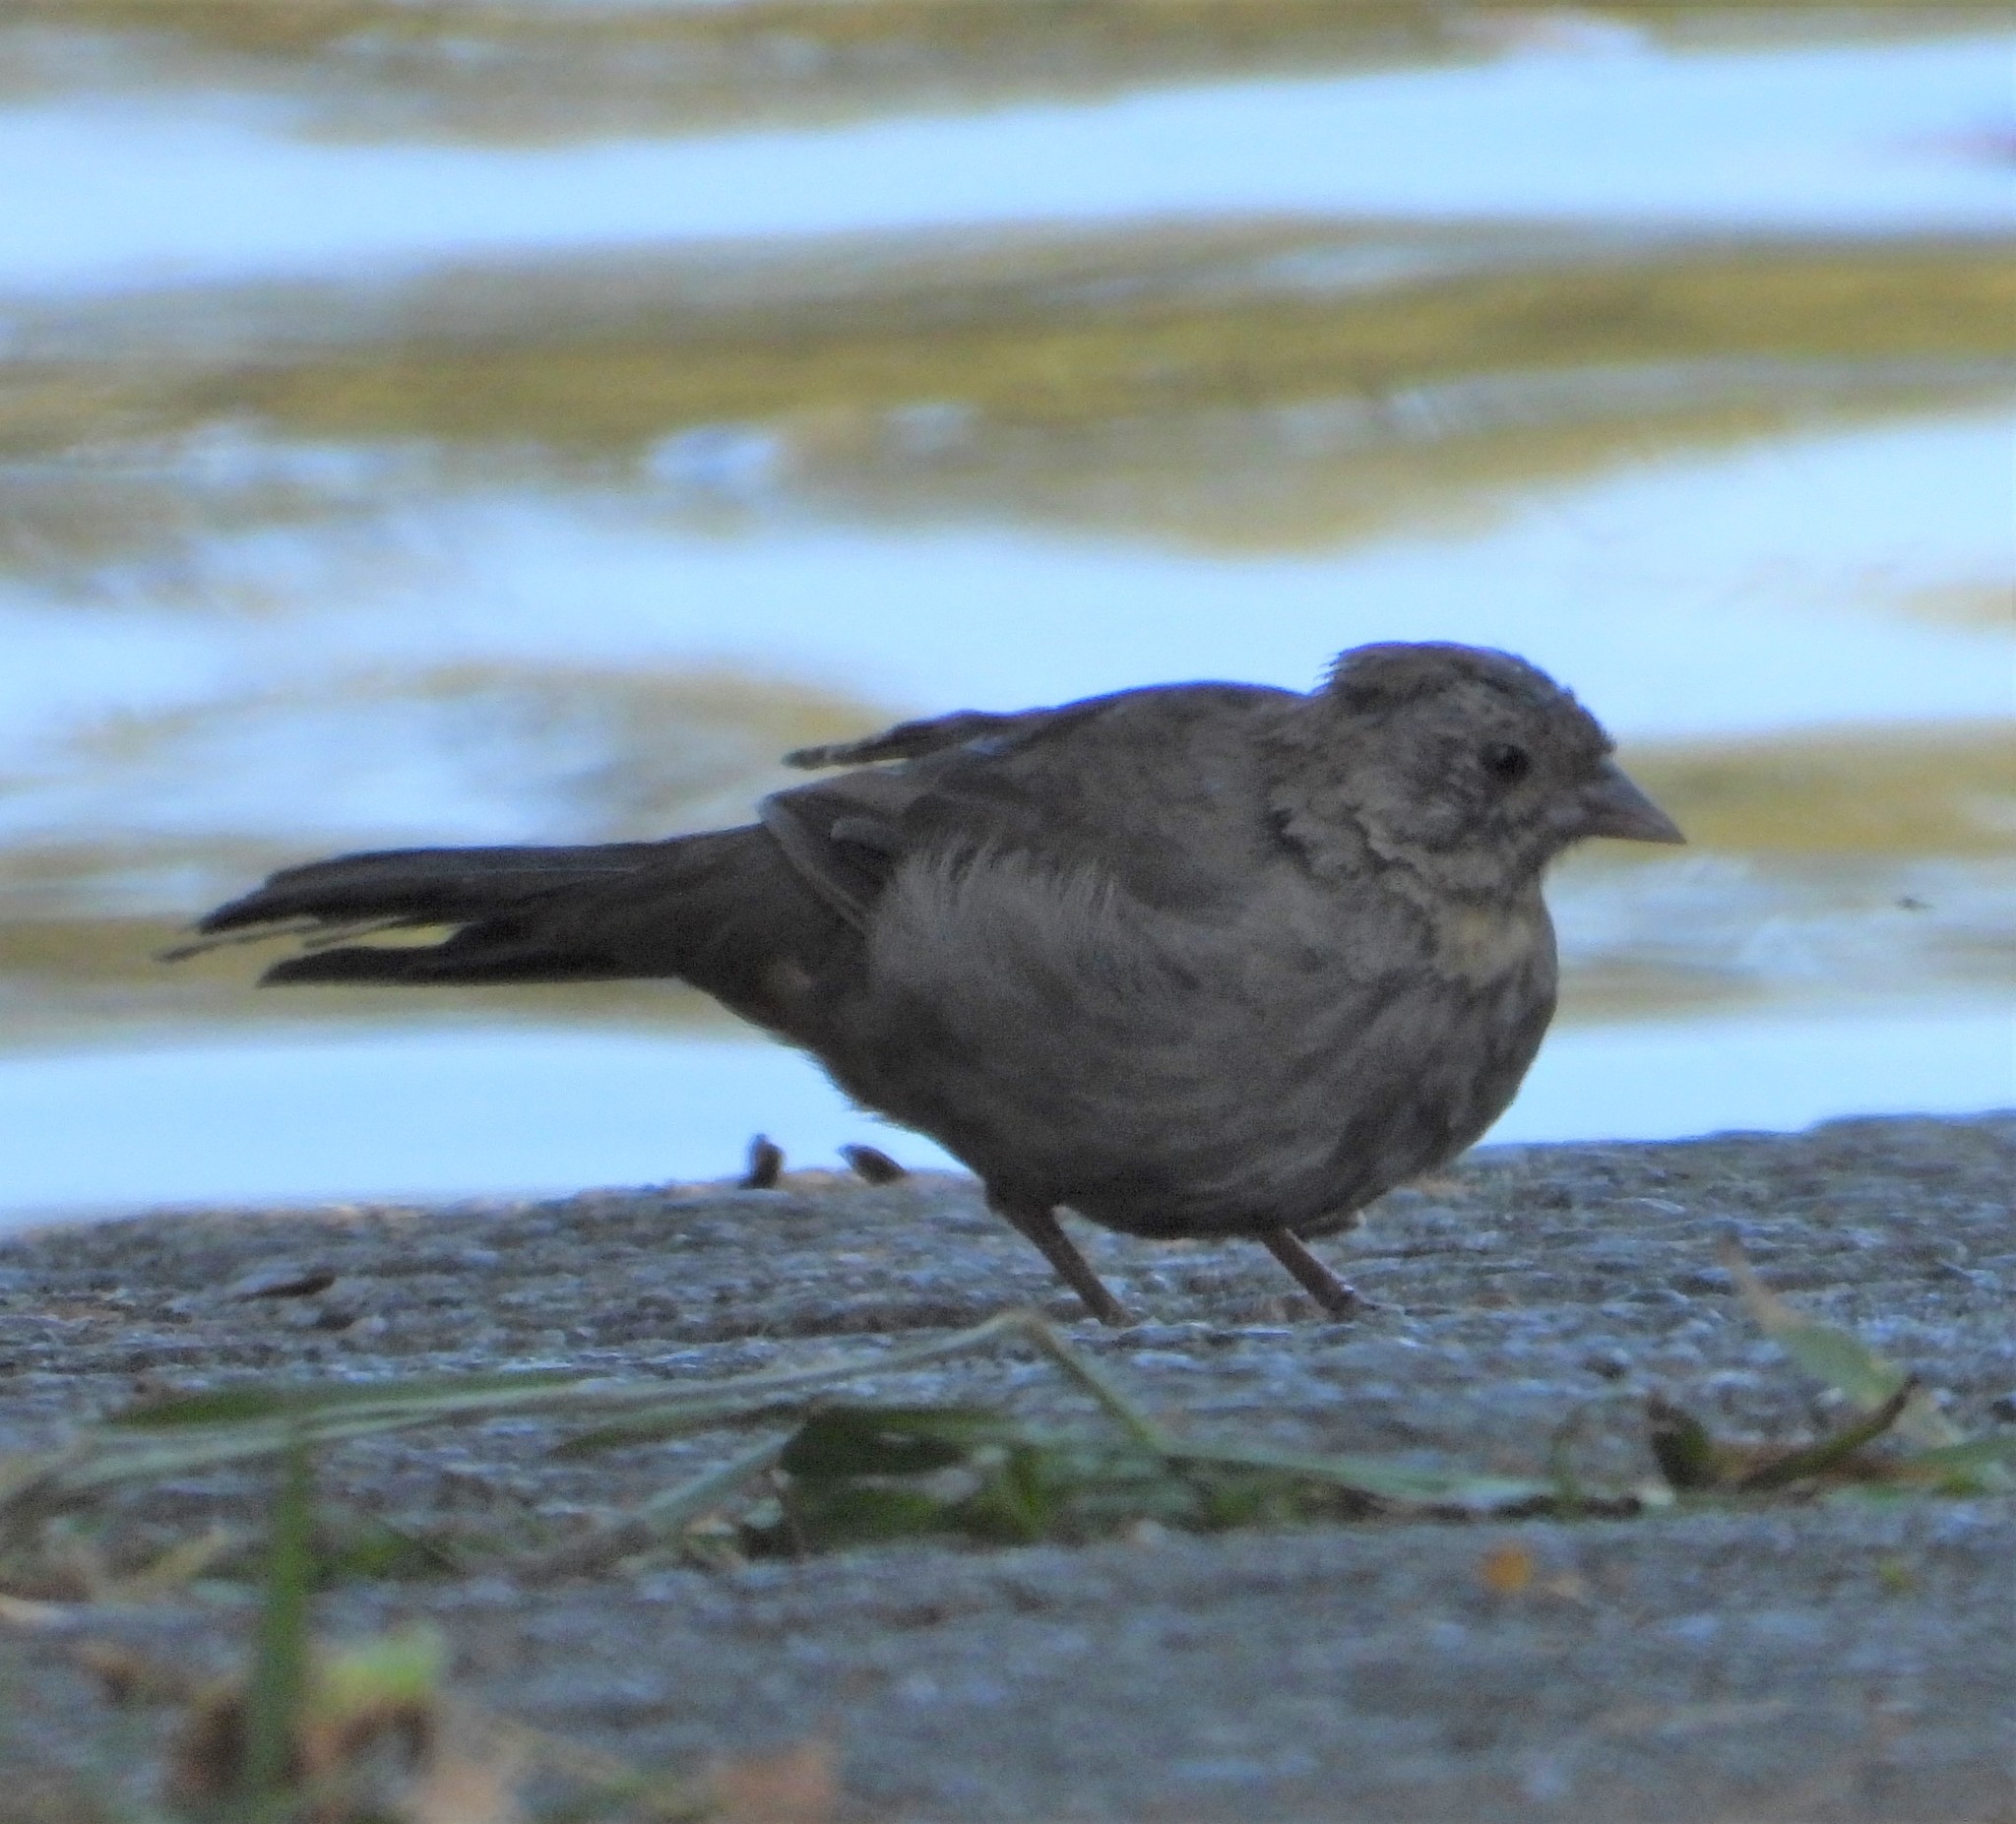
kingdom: Animalia
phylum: Chordata
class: Aves
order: Passeriformes
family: Passerellidae
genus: Melozone
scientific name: Melozone crissalis
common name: California towhee
